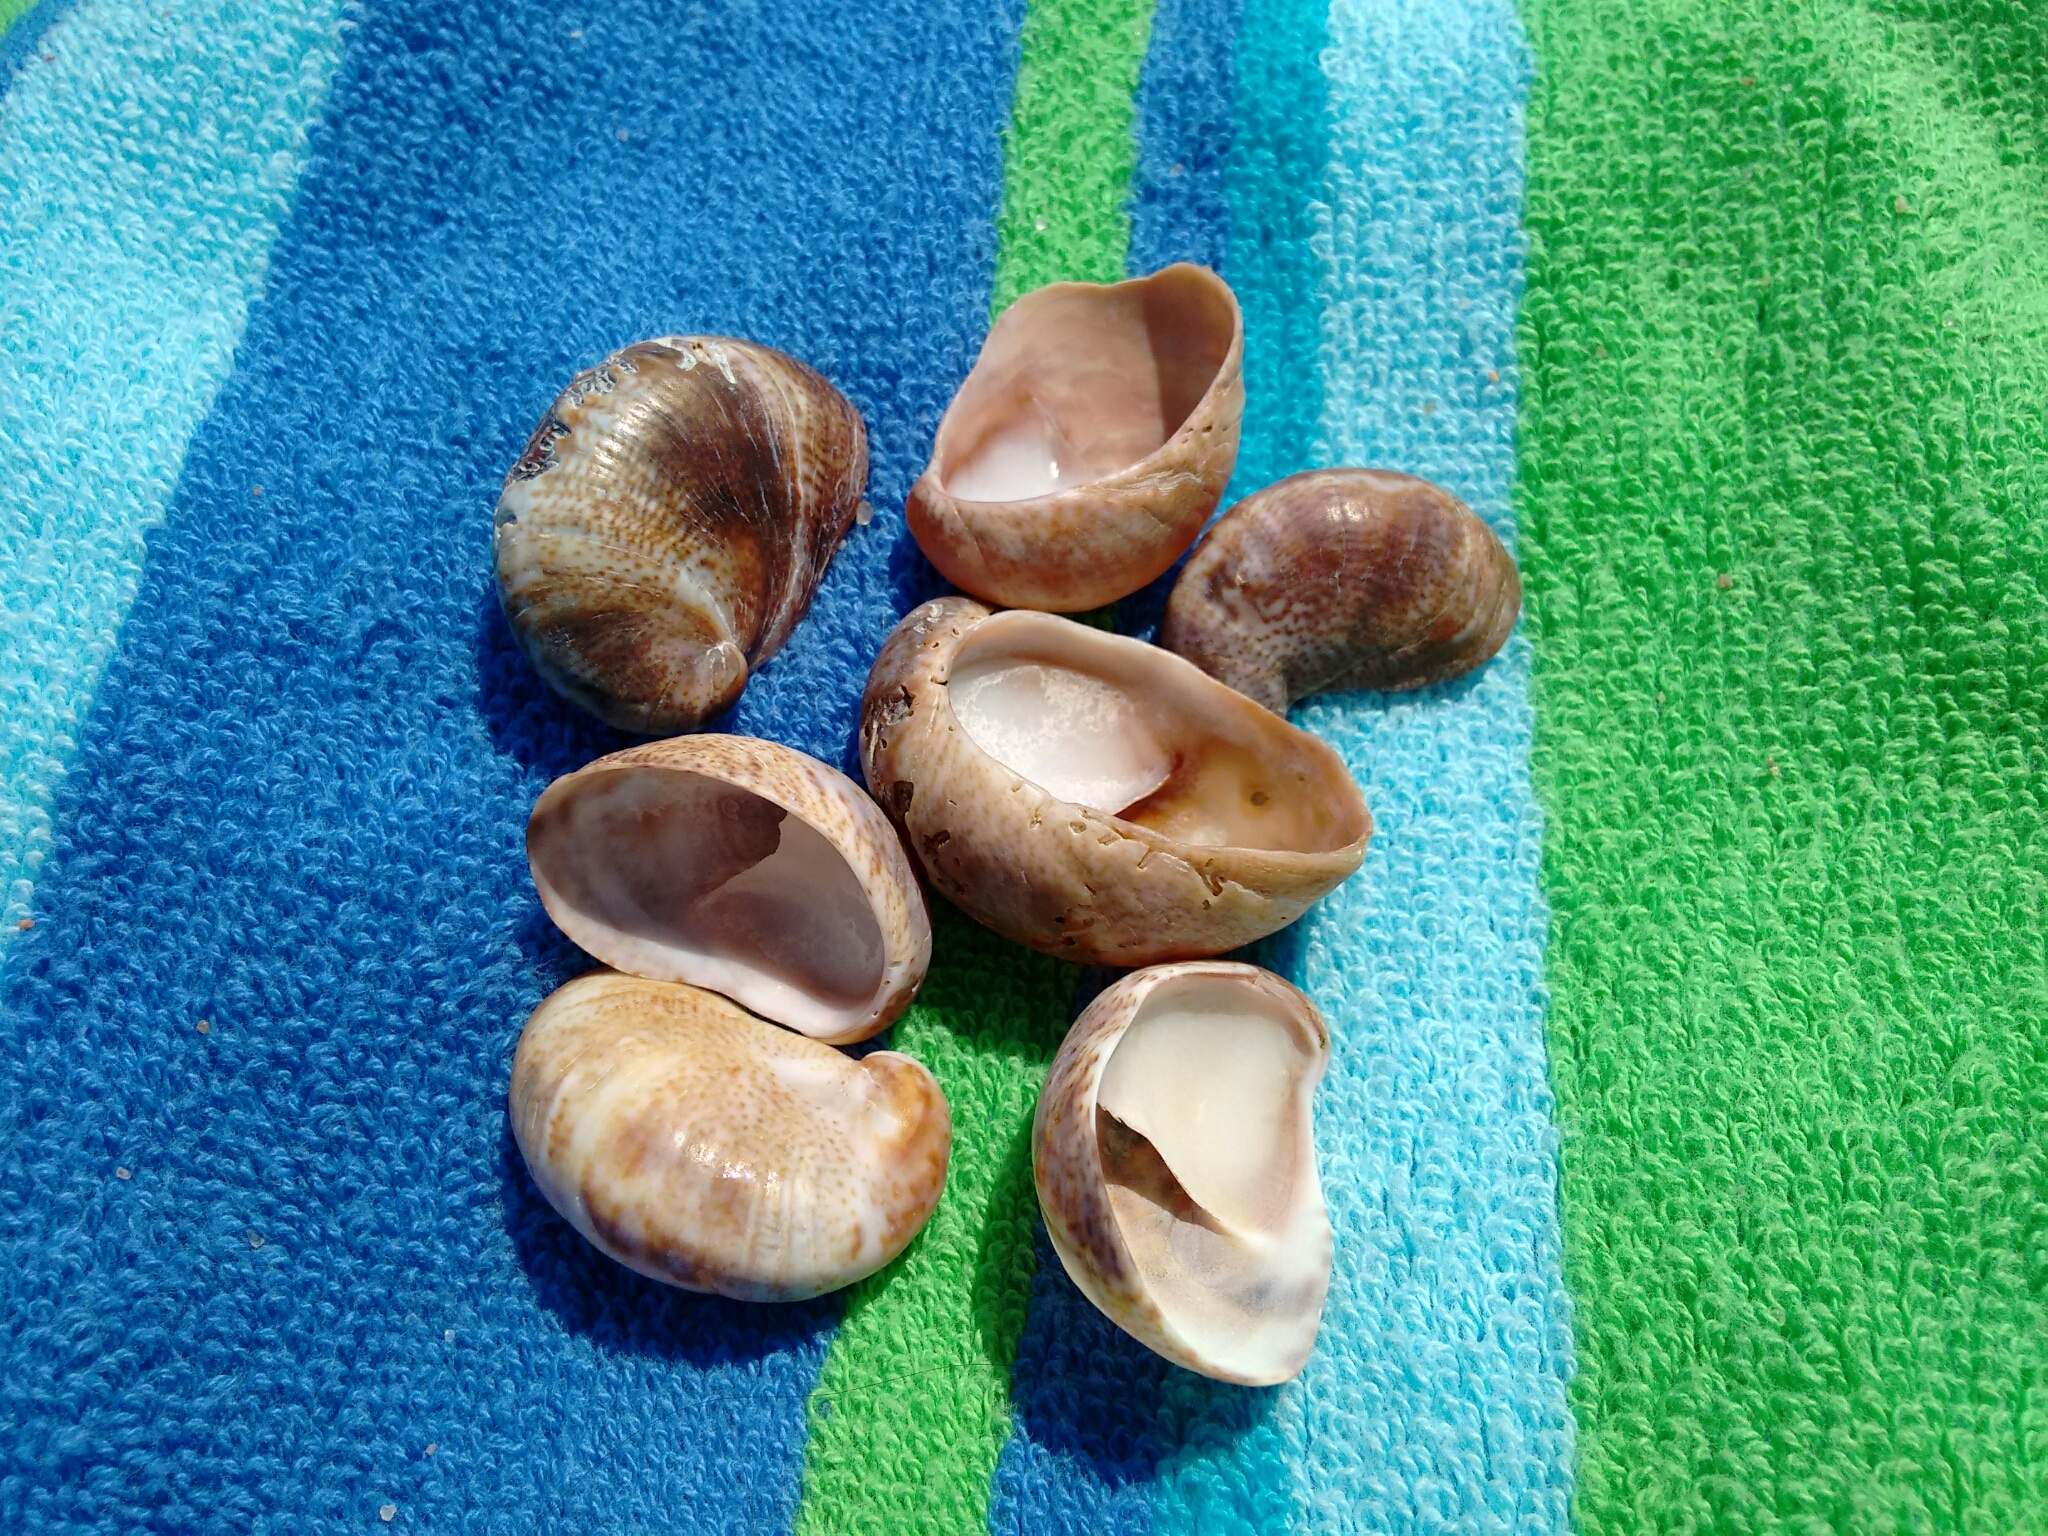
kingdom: Animalia
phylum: Mollusca
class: Gastropoda
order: Littorinimorpha
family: Calyptraeidae
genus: Crepidula
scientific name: Crepidula fornicata
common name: Slipper limpet
